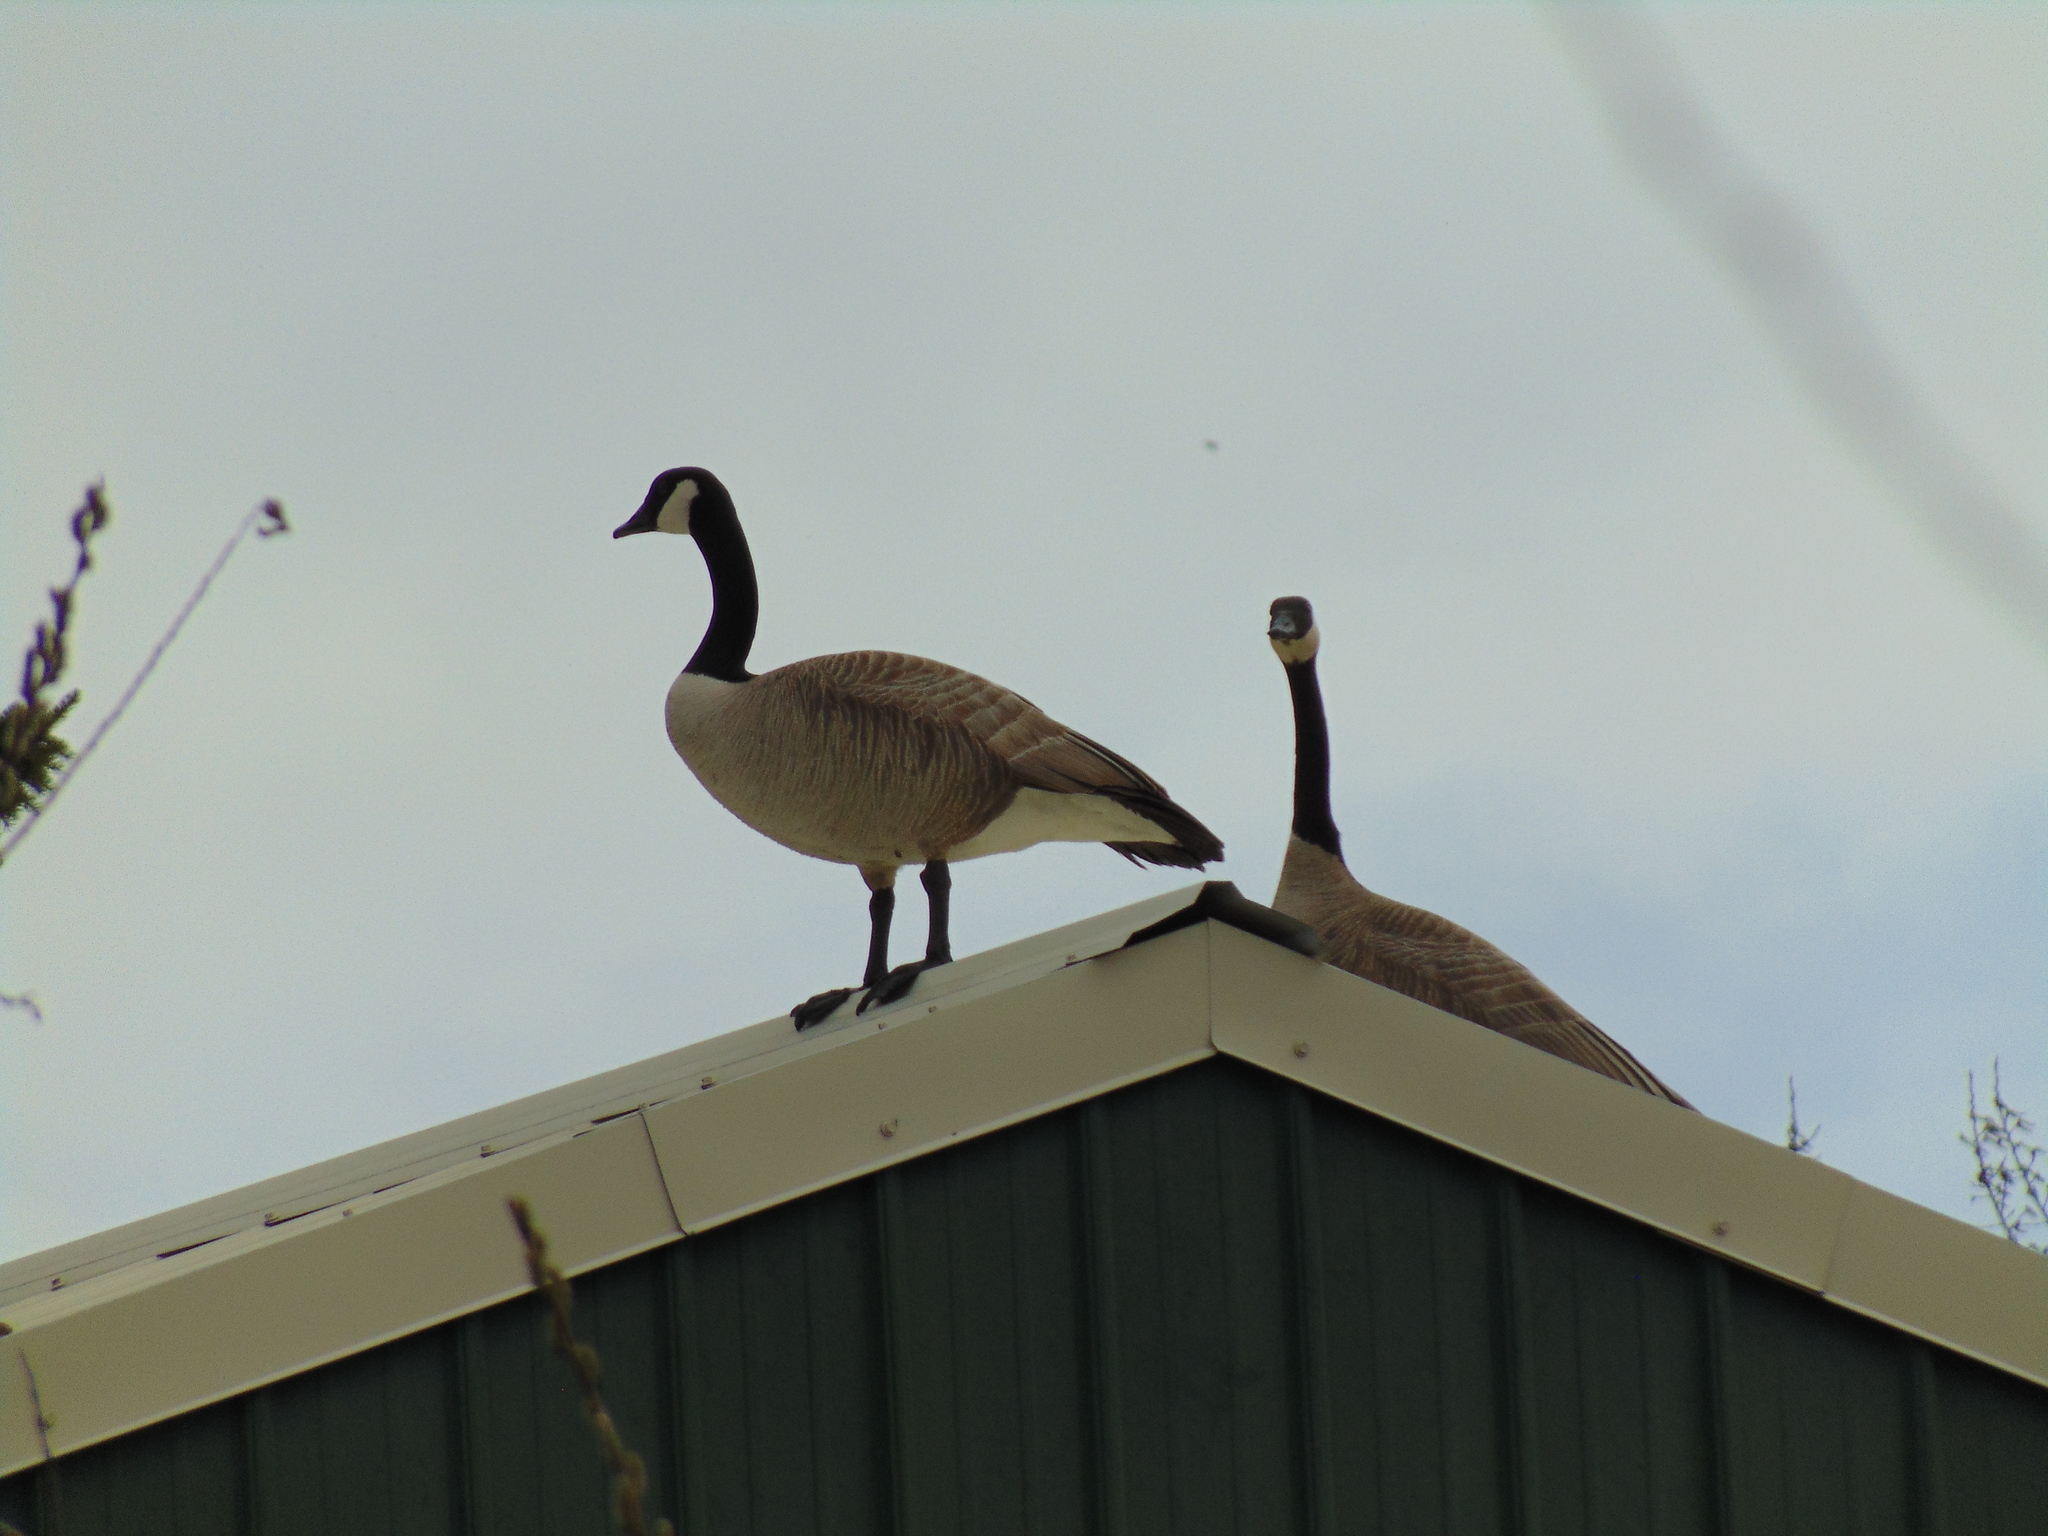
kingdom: Animalia
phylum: Chordata
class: Aves
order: Anseriformes
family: Anatidae
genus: Branta
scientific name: Branta canadensis
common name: Canada goose
